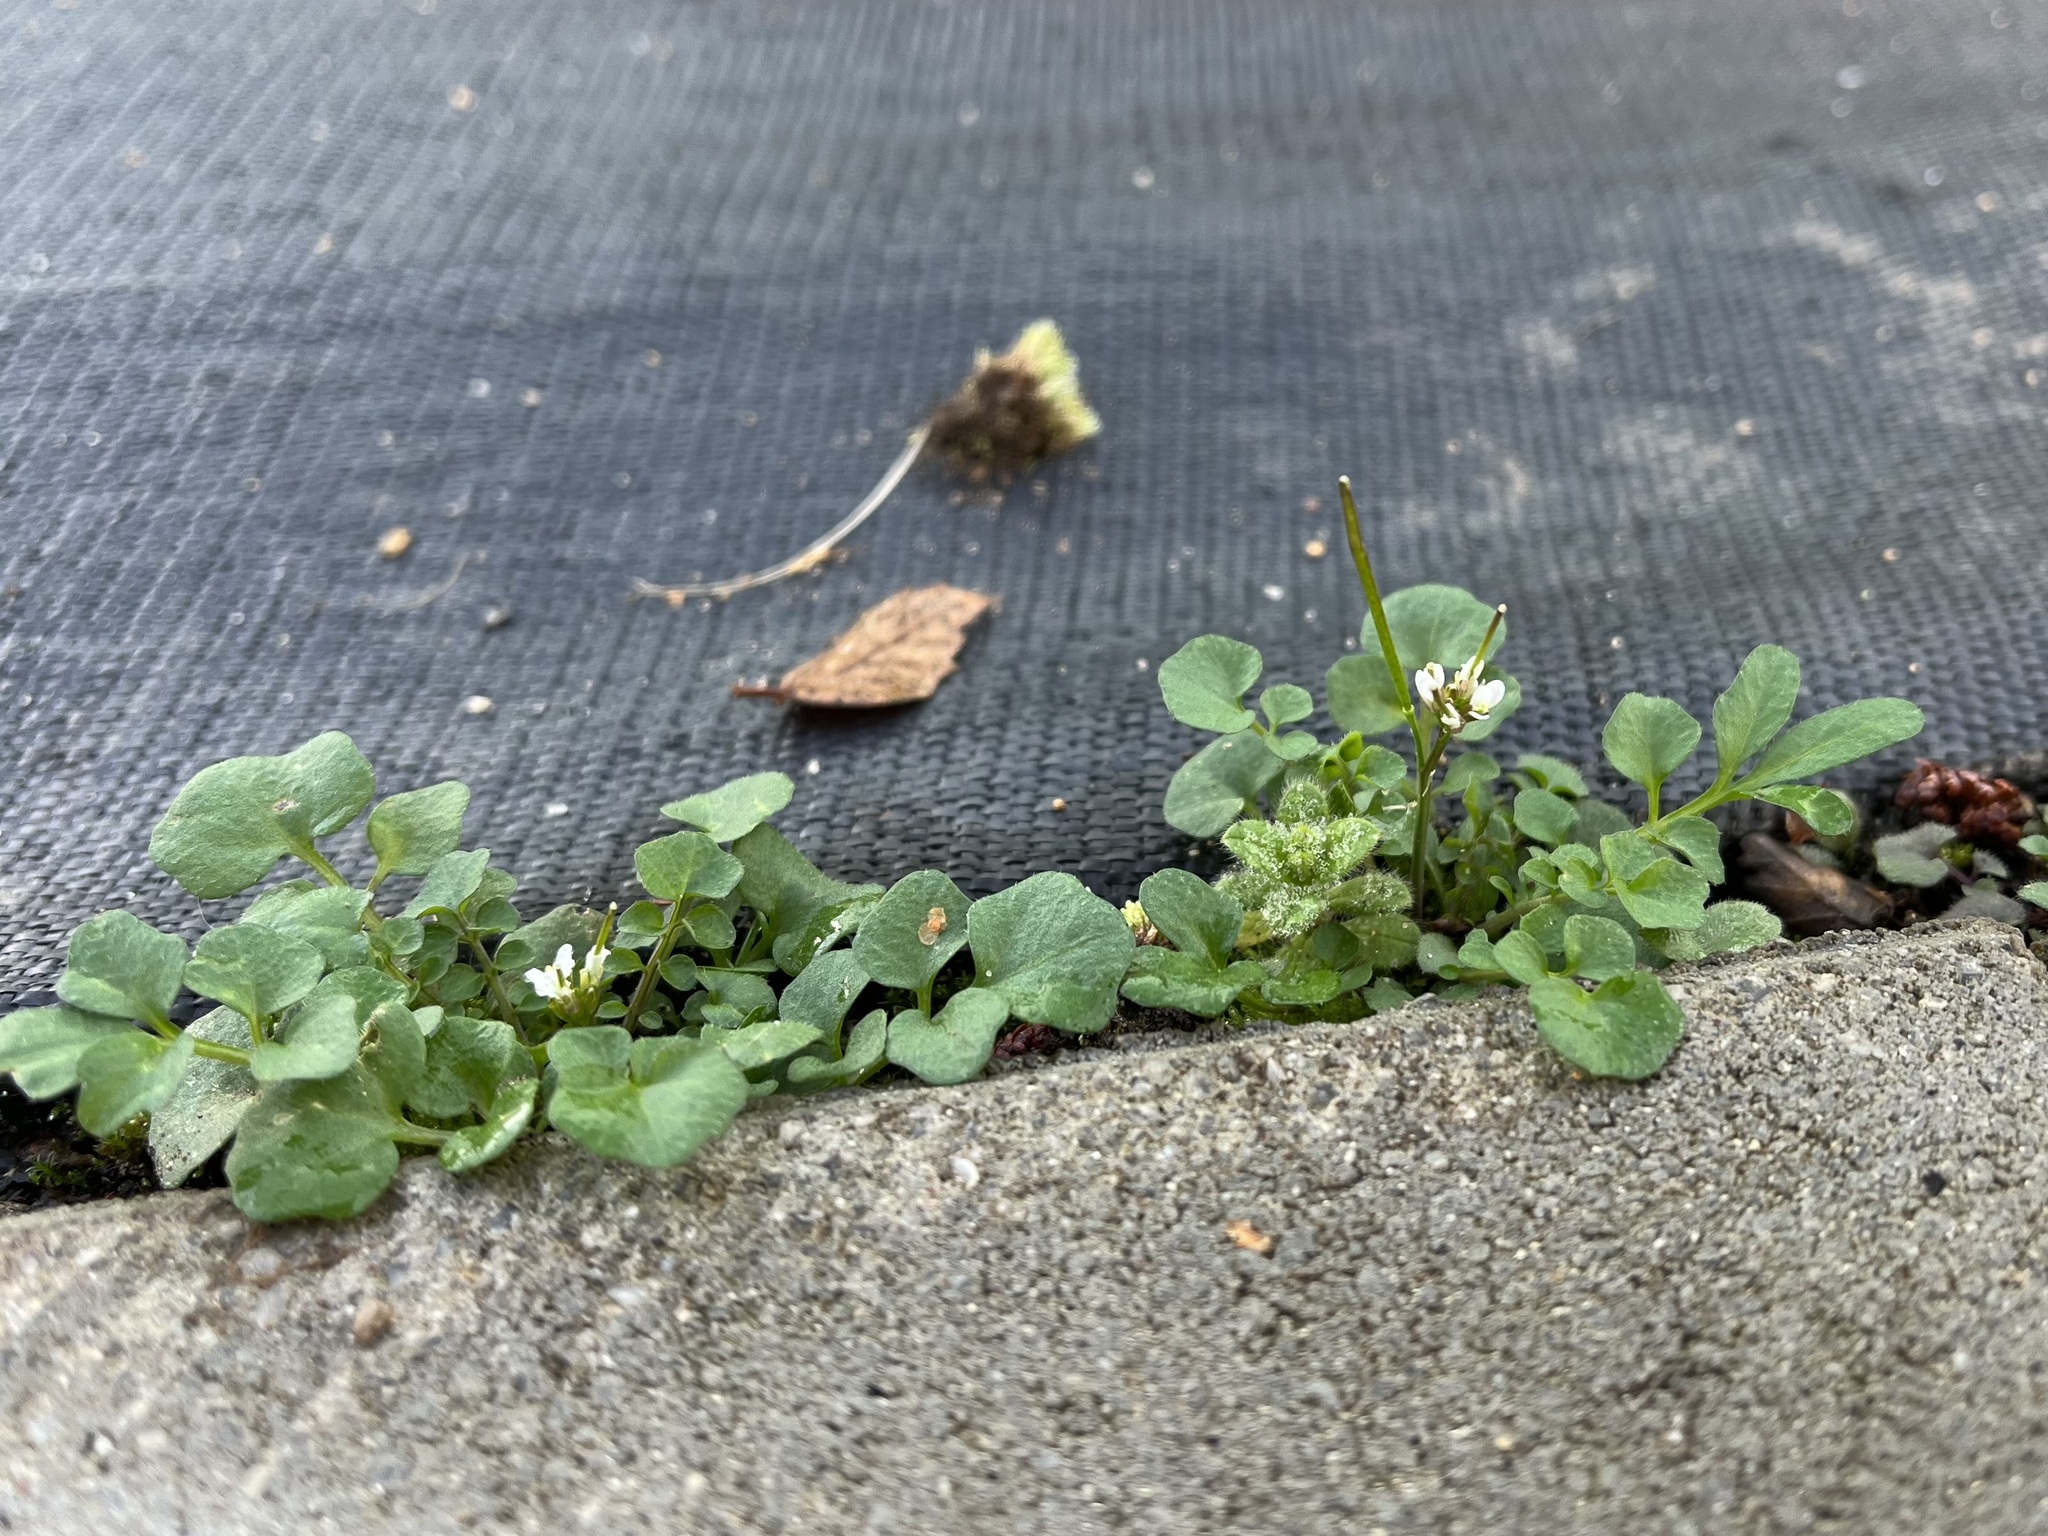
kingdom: Plantae
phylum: Tracheophyta
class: Magnoliopsida
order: Brassicales
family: Brassicaceae
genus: Cardamine
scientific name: Cardamine hirsuta
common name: Hairy bittercress
